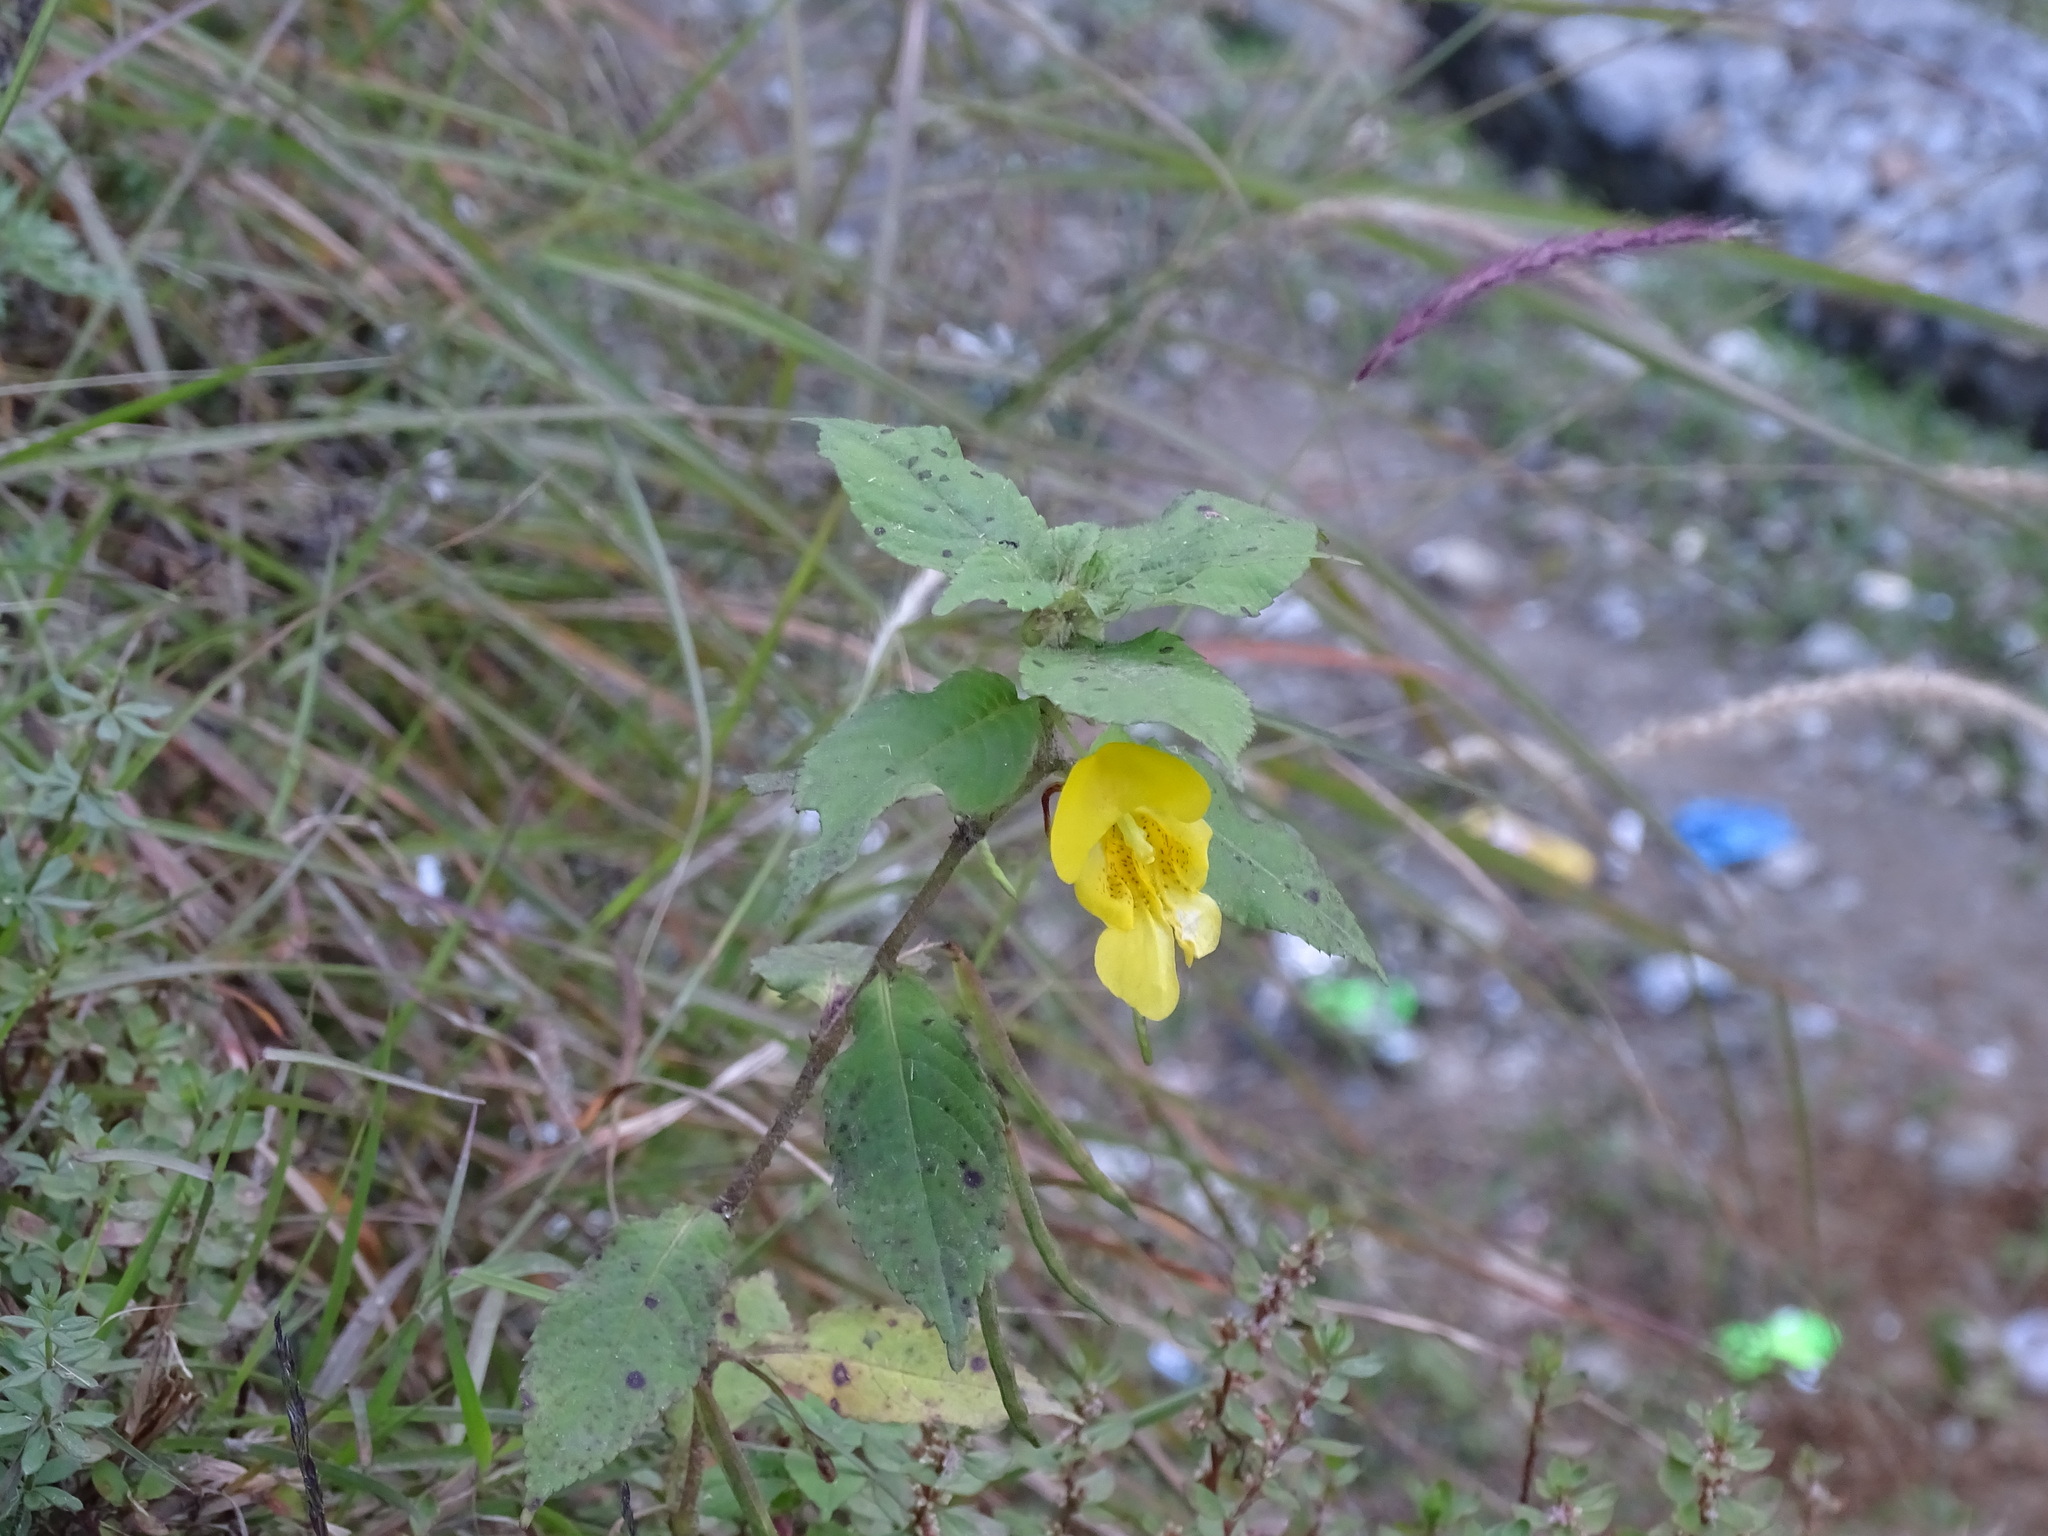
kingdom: Plantae
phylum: Tracheophyta
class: Magnoliopsida
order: Ericales
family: Balsaminaceae
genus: Impatiens
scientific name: Impatiens tricornis
